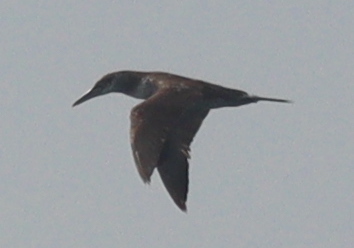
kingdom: Animalia
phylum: Chordata
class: Aves
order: Suliformes
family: Sulidae
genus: Morus
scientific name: Morus bassanus
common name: Northern gannet
